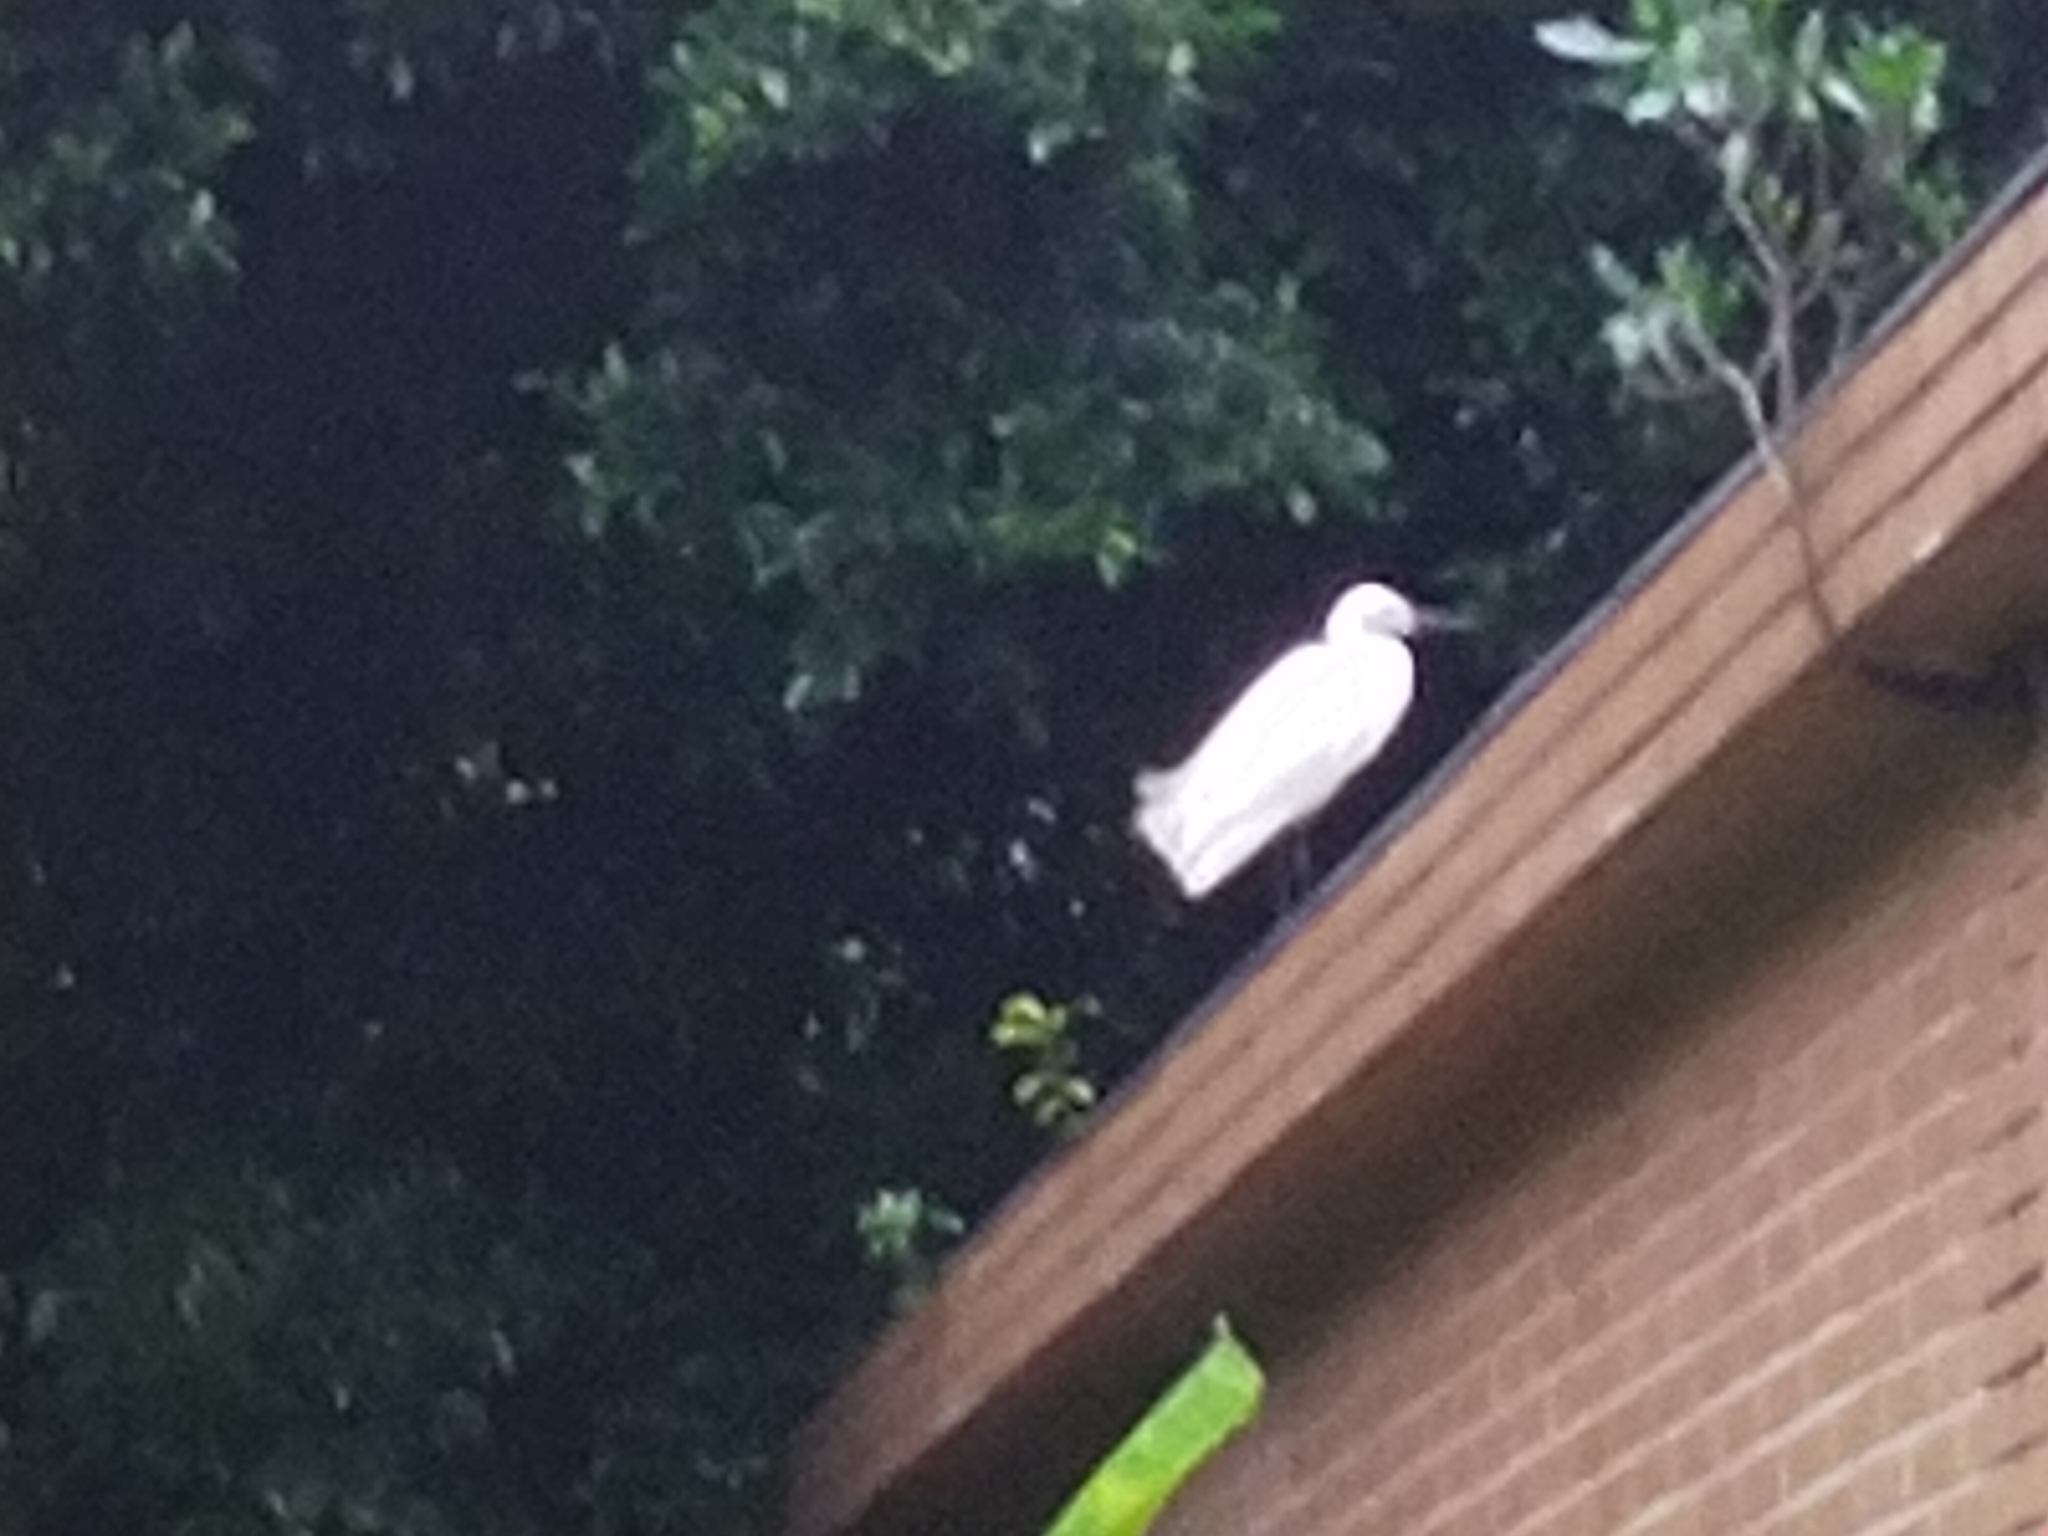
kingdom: Animalia
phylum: Chordata
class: Aves
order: Pelecaniformes
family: Ardeidae
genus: Egretta
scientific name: Egretta garzetta
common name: Little egret
